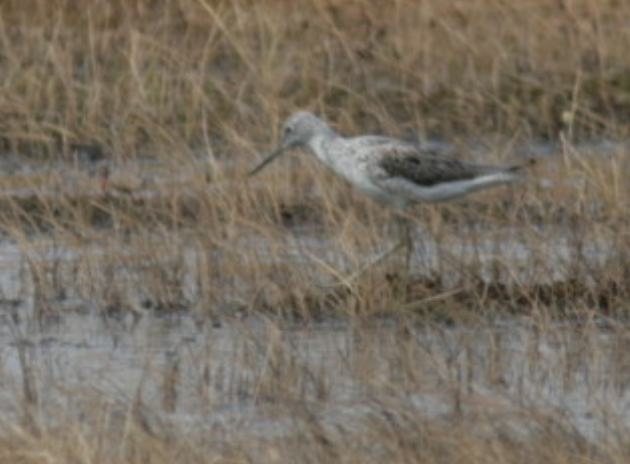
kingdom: Animalia
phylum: Chordata
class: Aves
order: Charadriiformes
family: Scolopacidae
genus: Tringa
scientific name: Tringa nebularia
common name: Common greenshank
